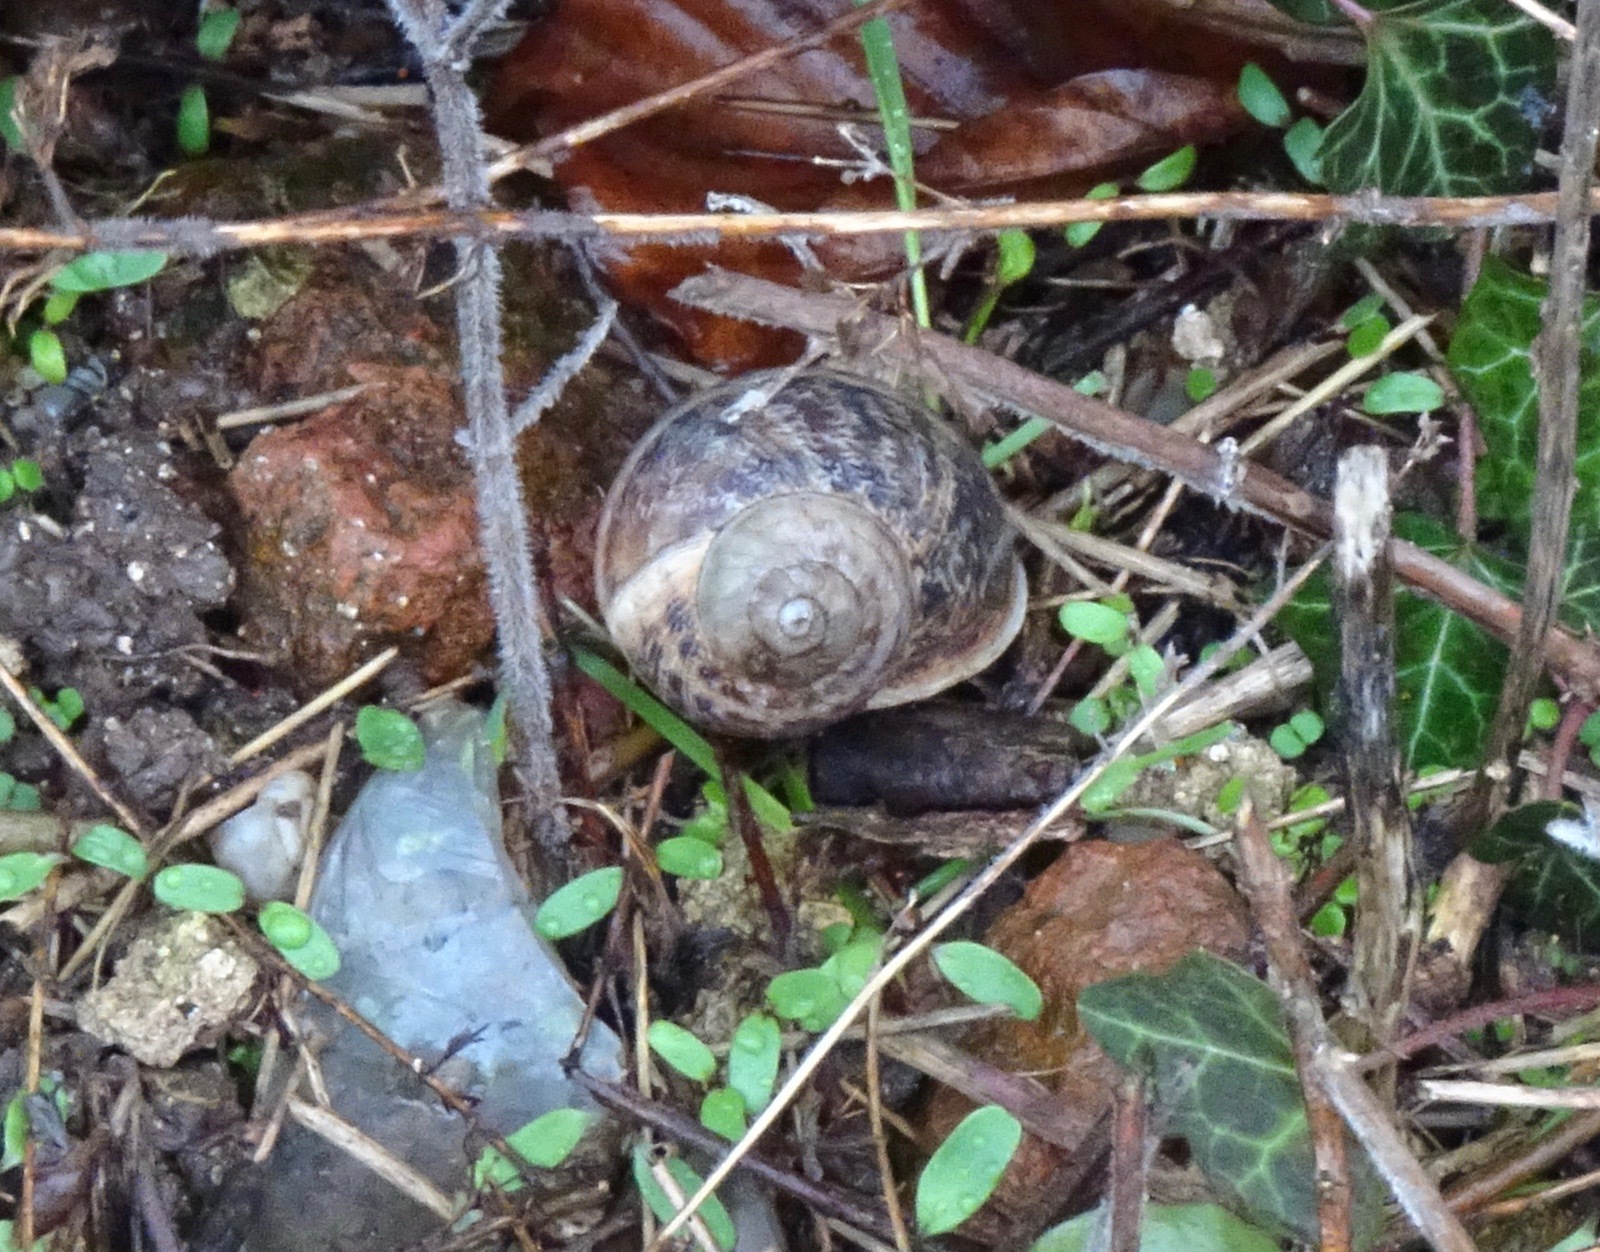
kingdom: Animalia
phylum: Mollusca
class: Gastropoda
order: Stylommatophora
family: Helicidae
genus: Cornu
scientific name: Cornu aspersum
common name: Brown garden snail
